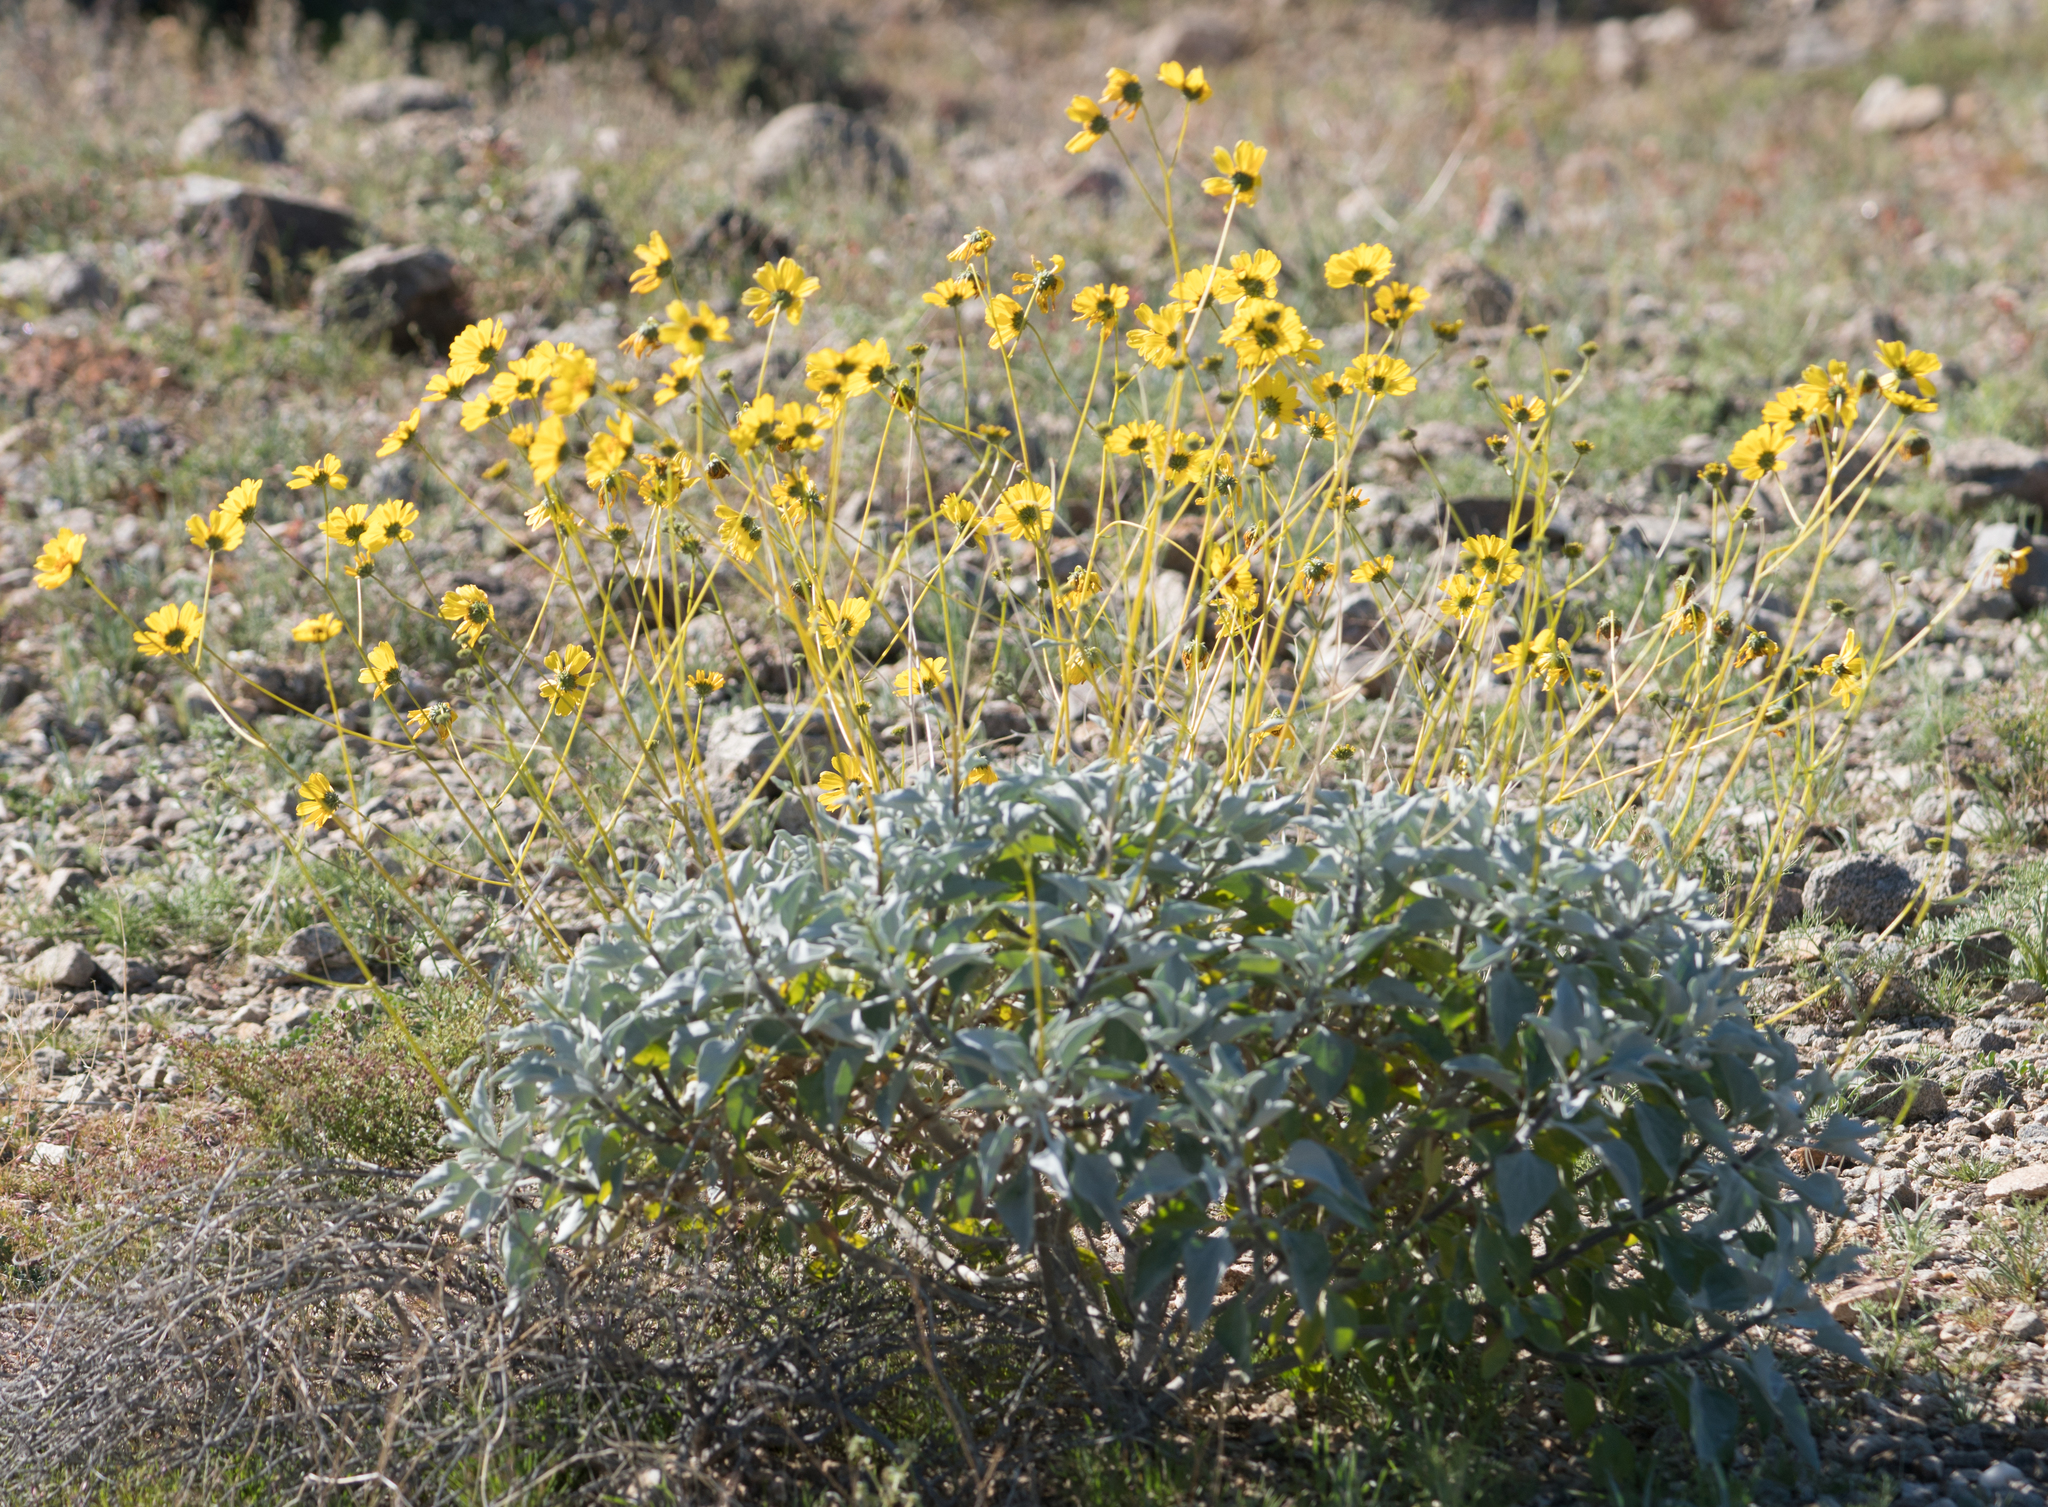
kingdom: Plantae
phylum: Tracheophyta
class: Magnoliopsida
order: Asterales
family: Asteraceae
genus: Encelia
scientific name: Encelia farinosa
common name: Brittlebush
